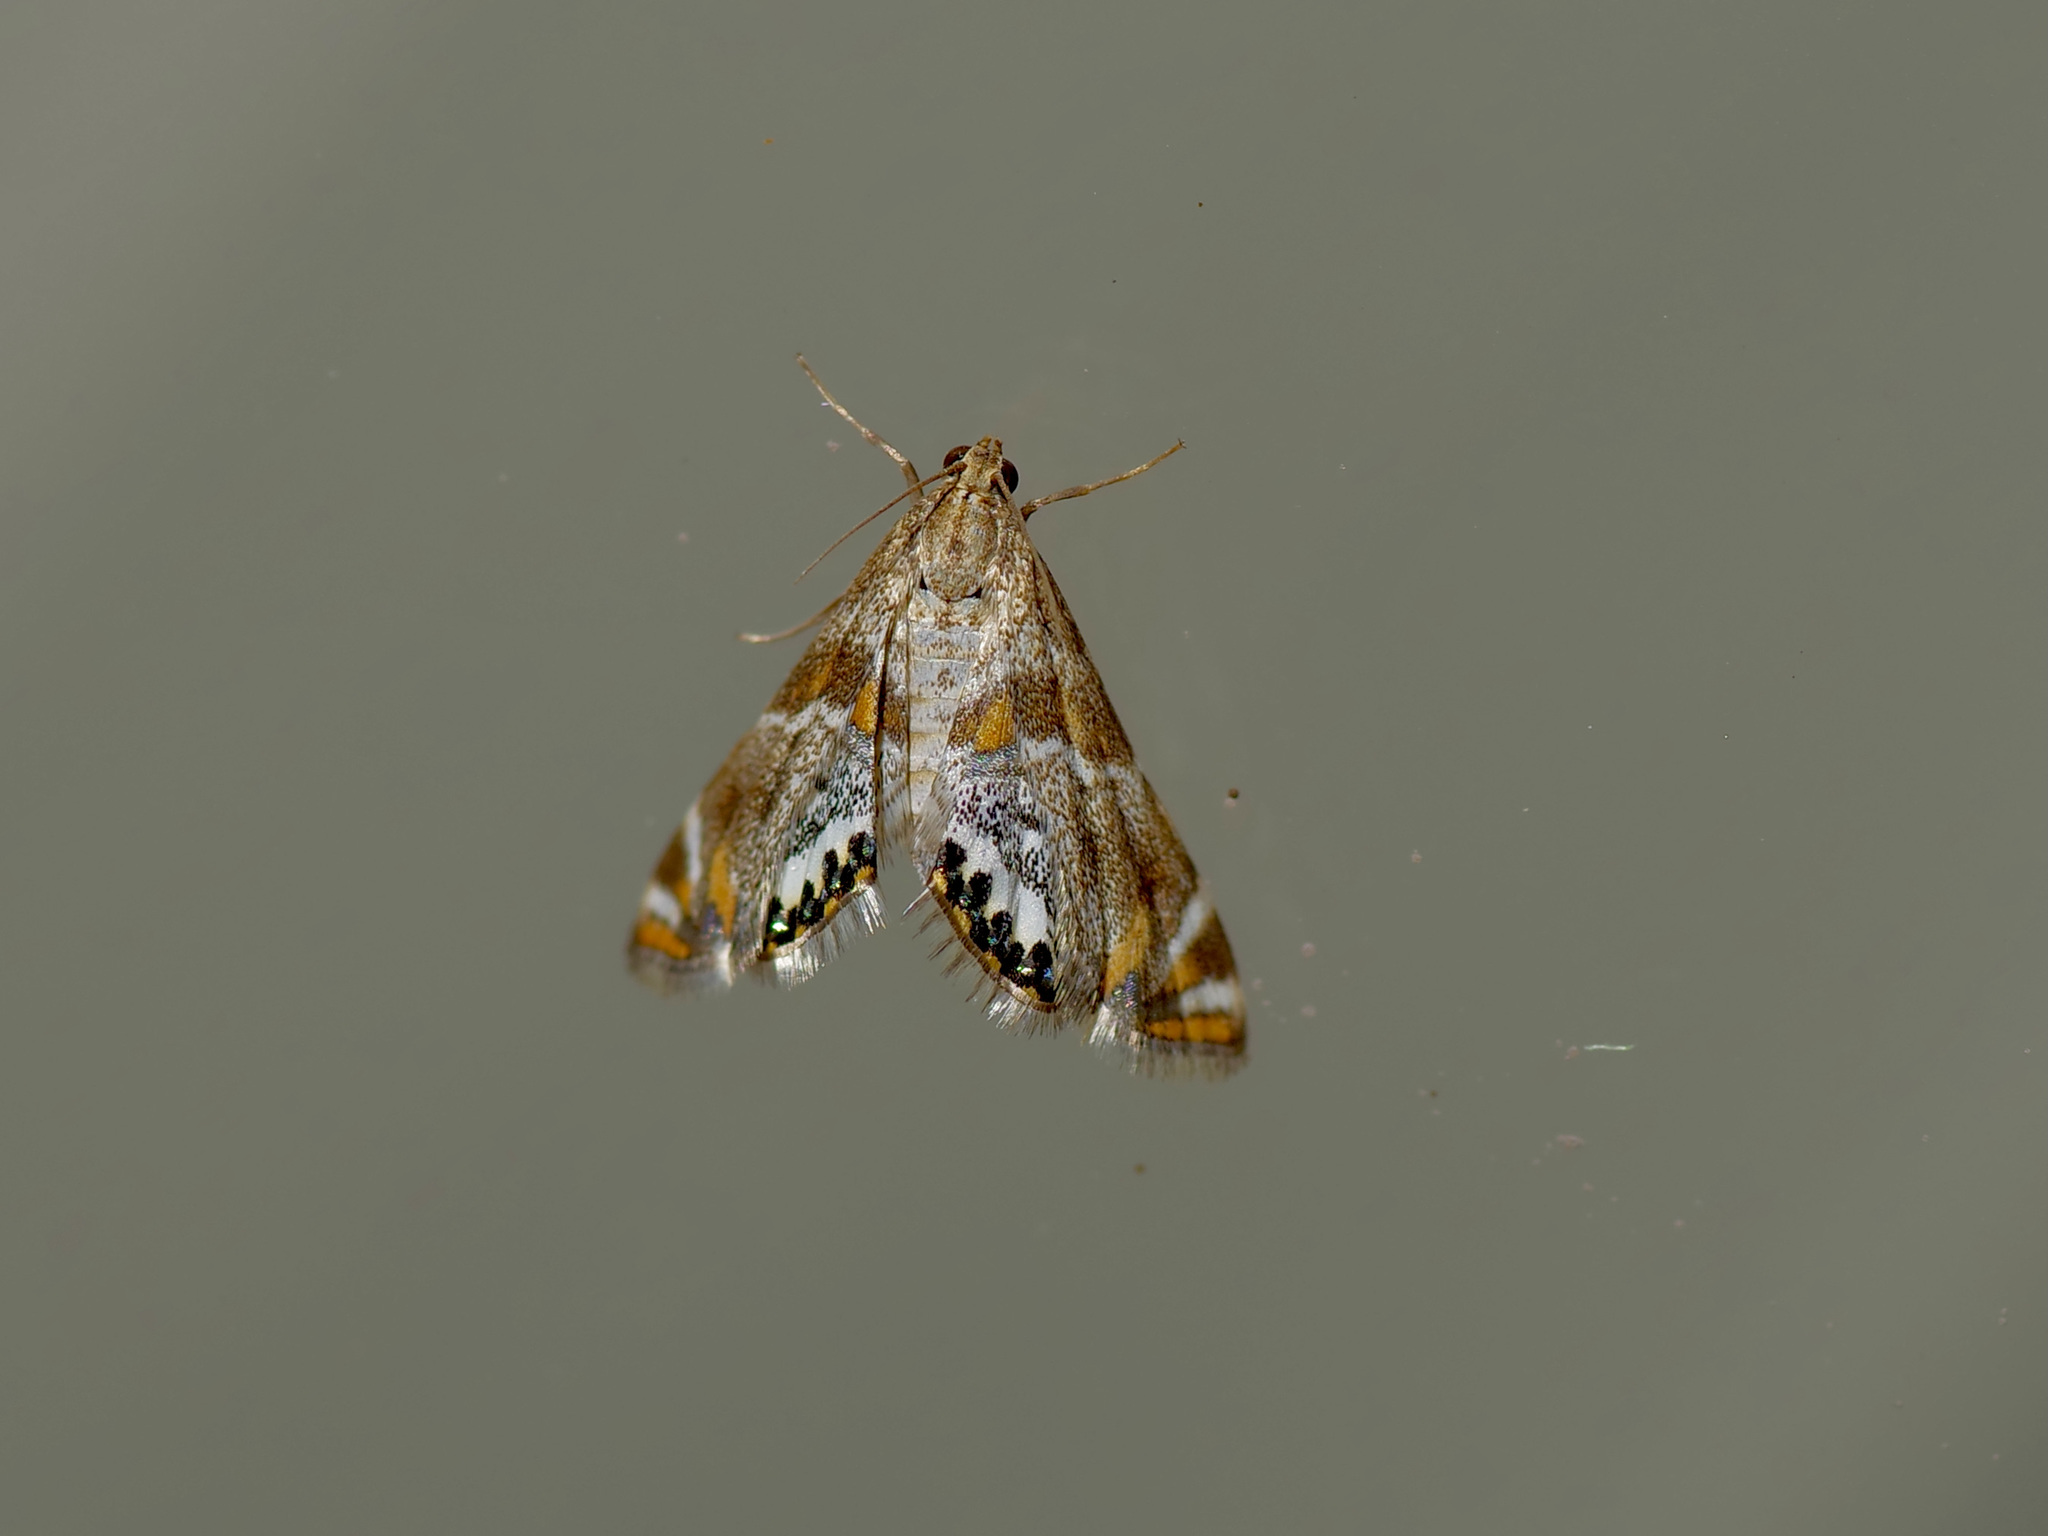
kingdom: Animalia
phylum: Arthropoda
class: Insecta
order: Lepidoptera
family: Crambidae
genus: Petrophila
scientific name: Petrophila jaliscalis
